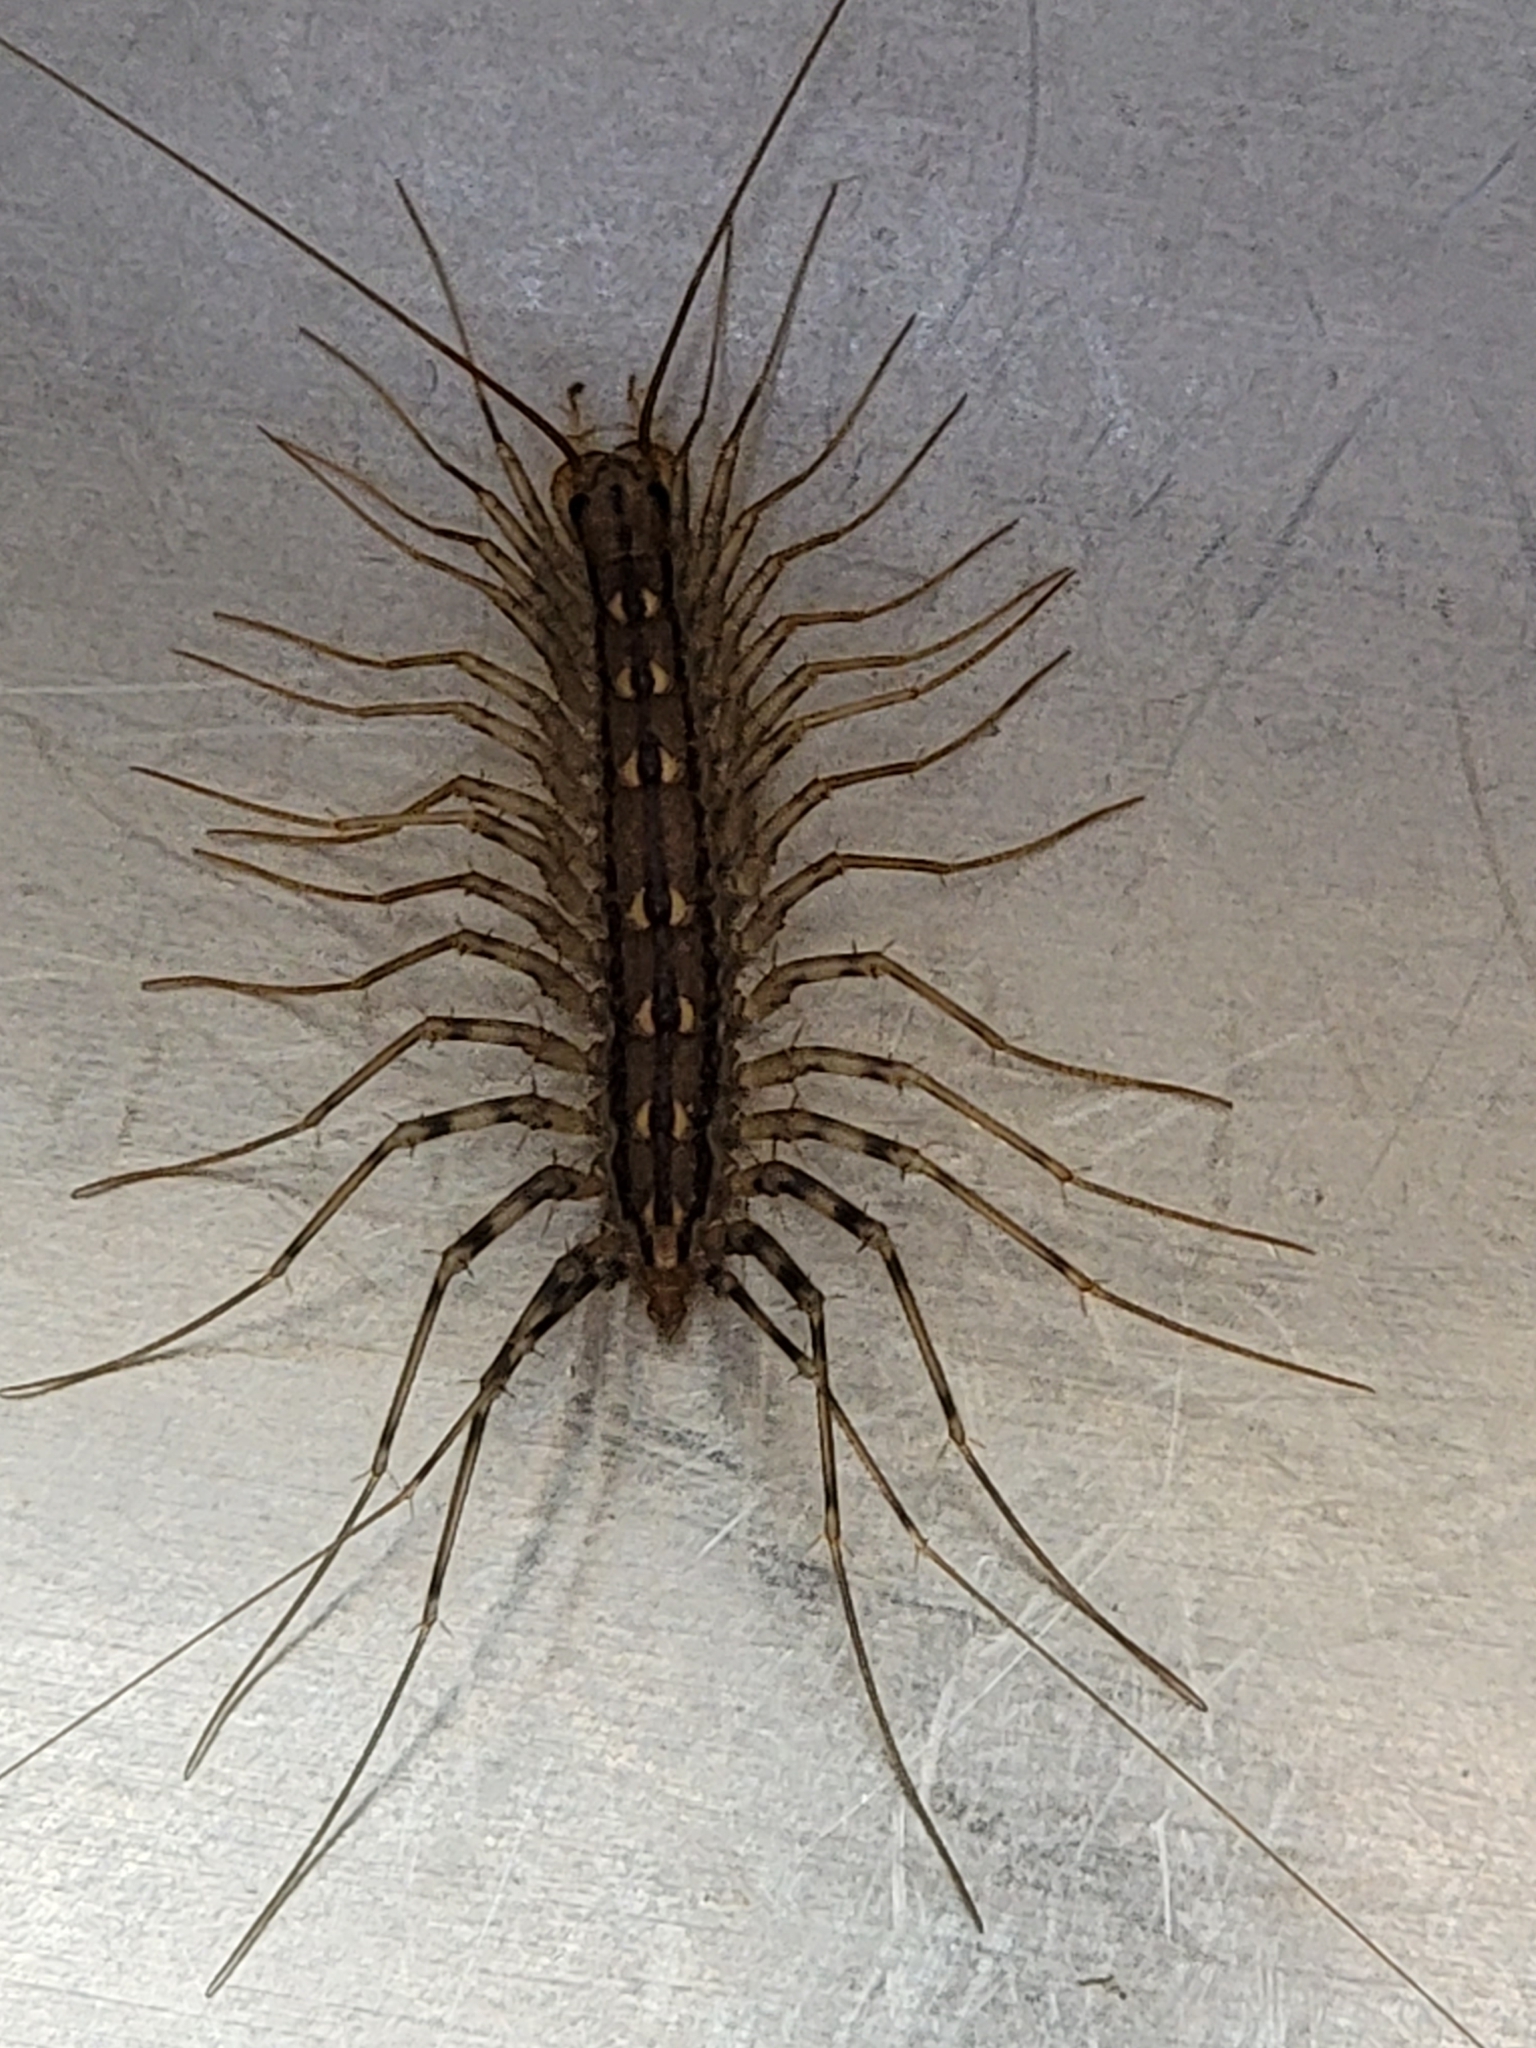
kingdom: Animalia
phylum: Arthropoda
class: Chilopoda
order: Scutigeromorpha
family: Scutigeridae
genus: Scutigera
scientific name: Scutigera coleoptrata
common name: House centipede
